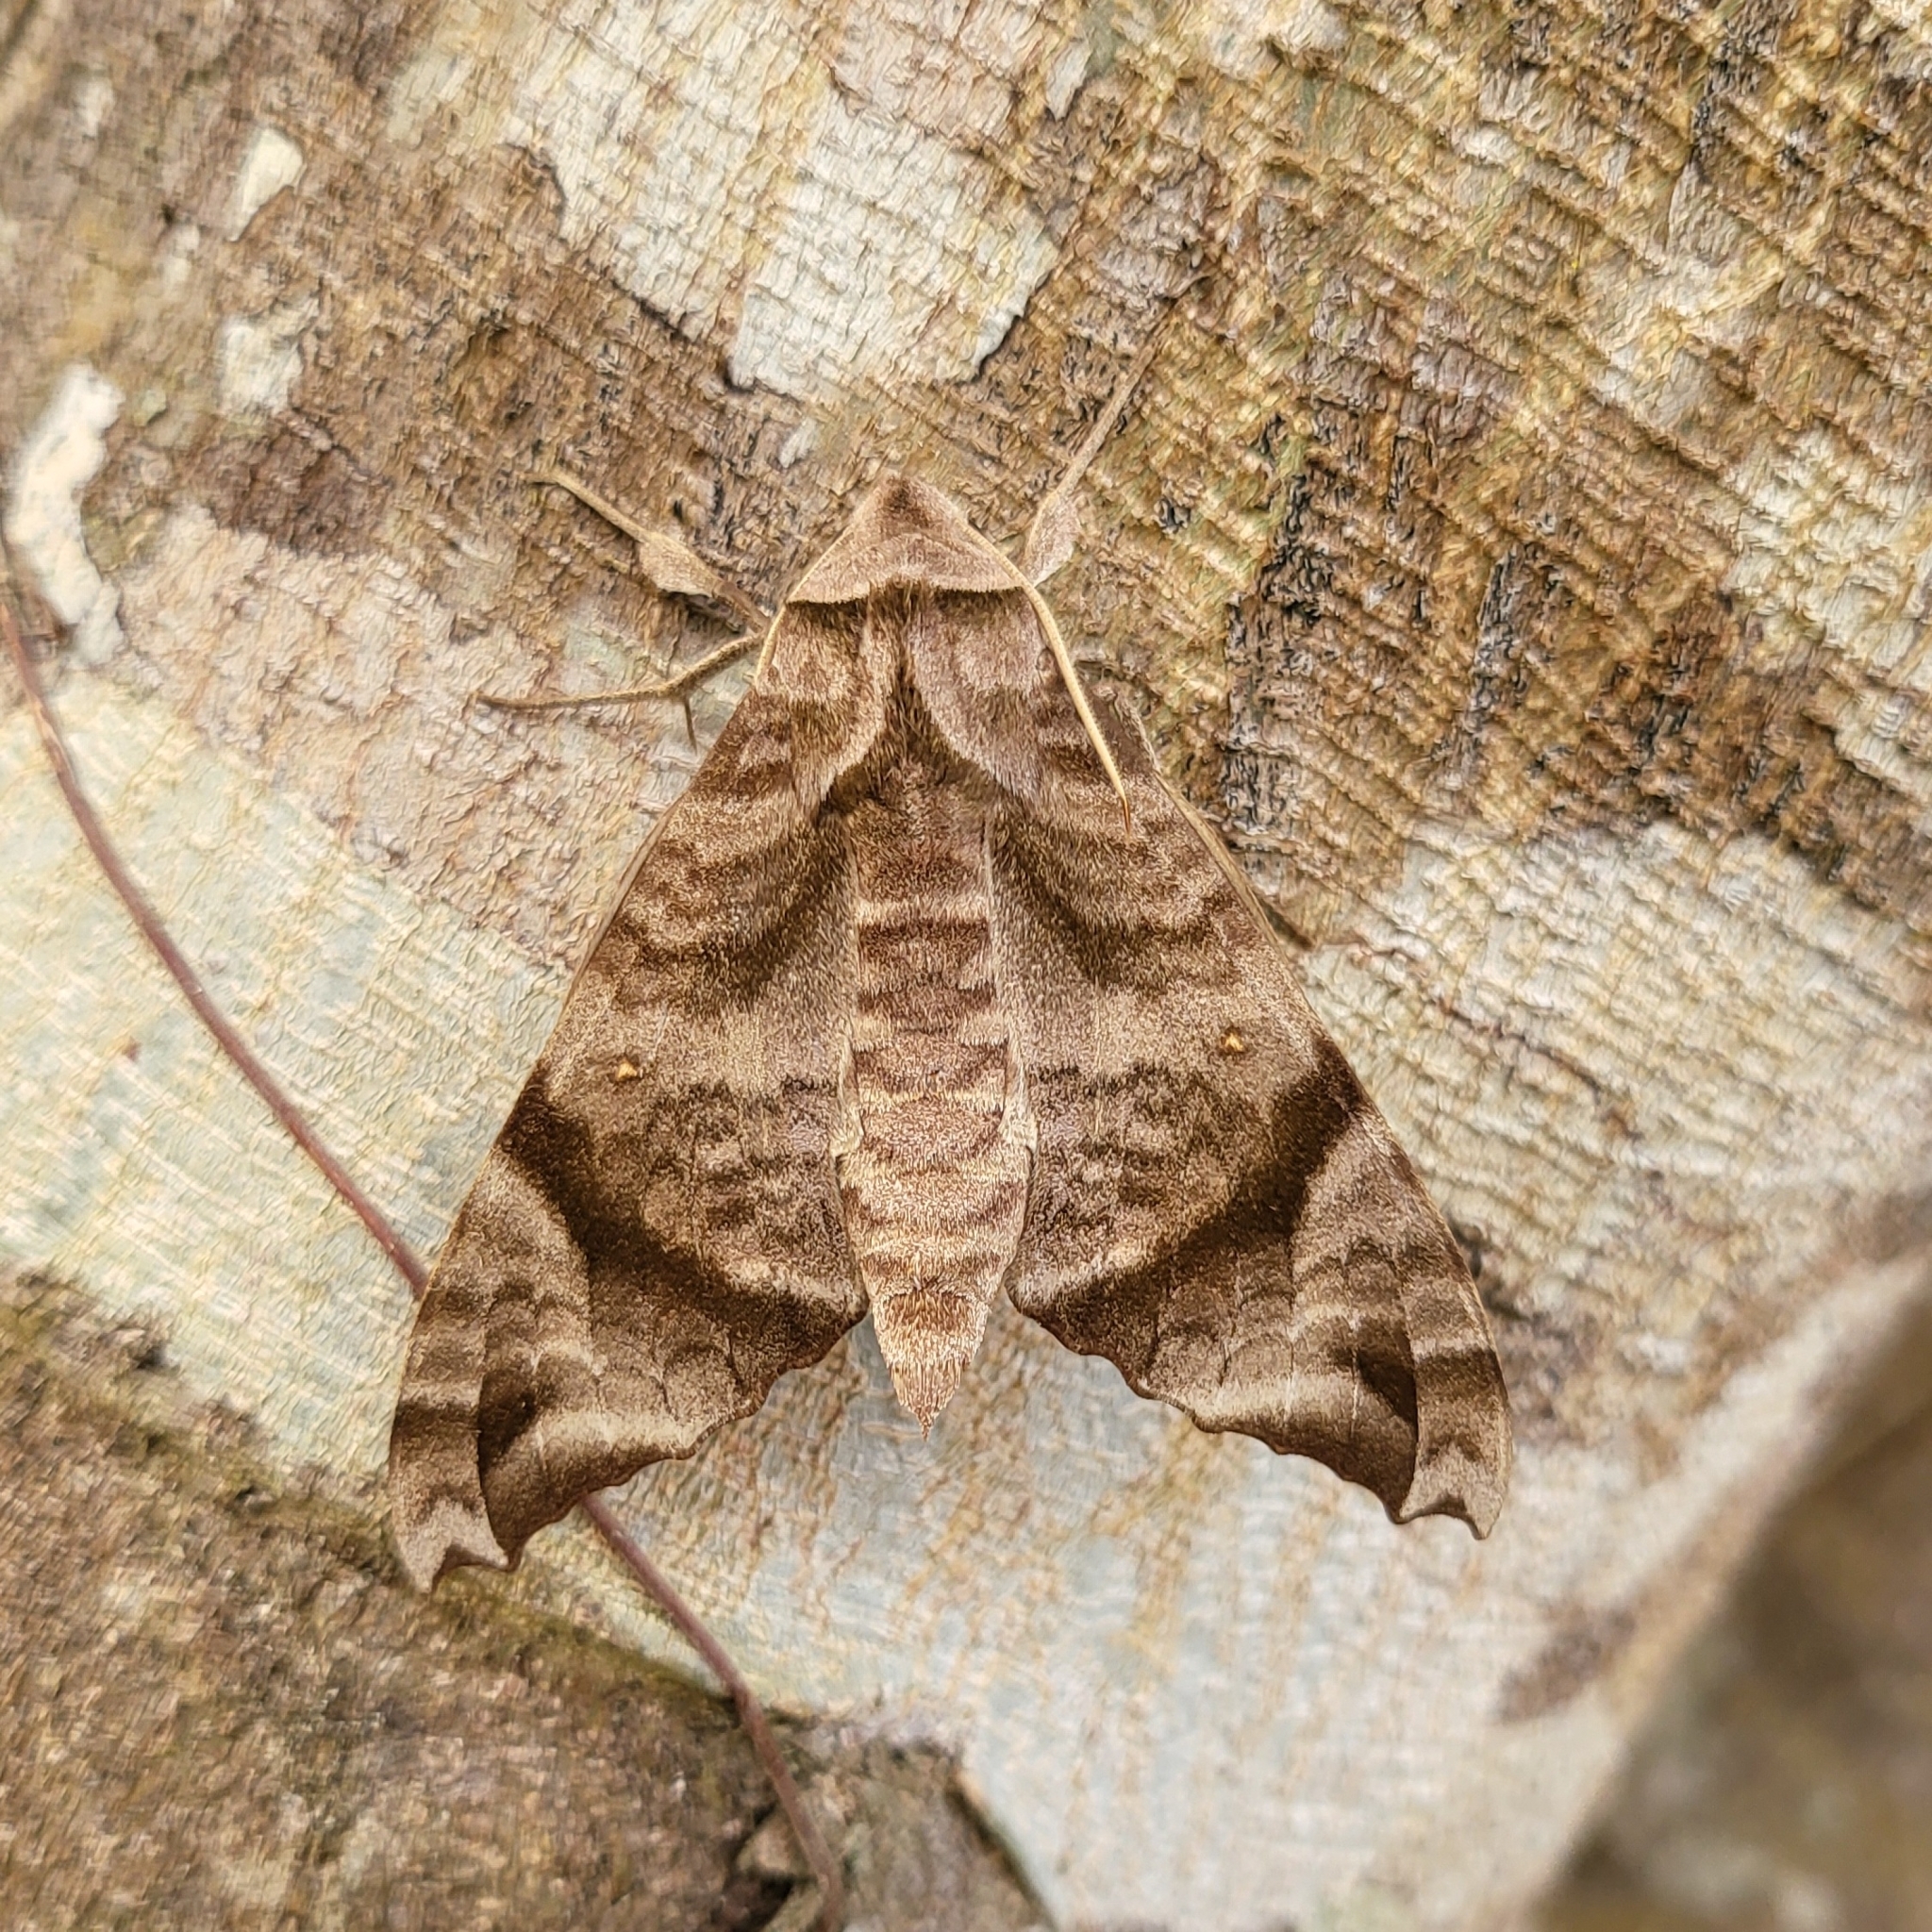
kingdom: Animalia
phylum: Arthropoda
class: Insecta
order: Lepidoptera
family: Sphingidae
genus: Acosmeryx
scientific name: Acosmeryx omissa
